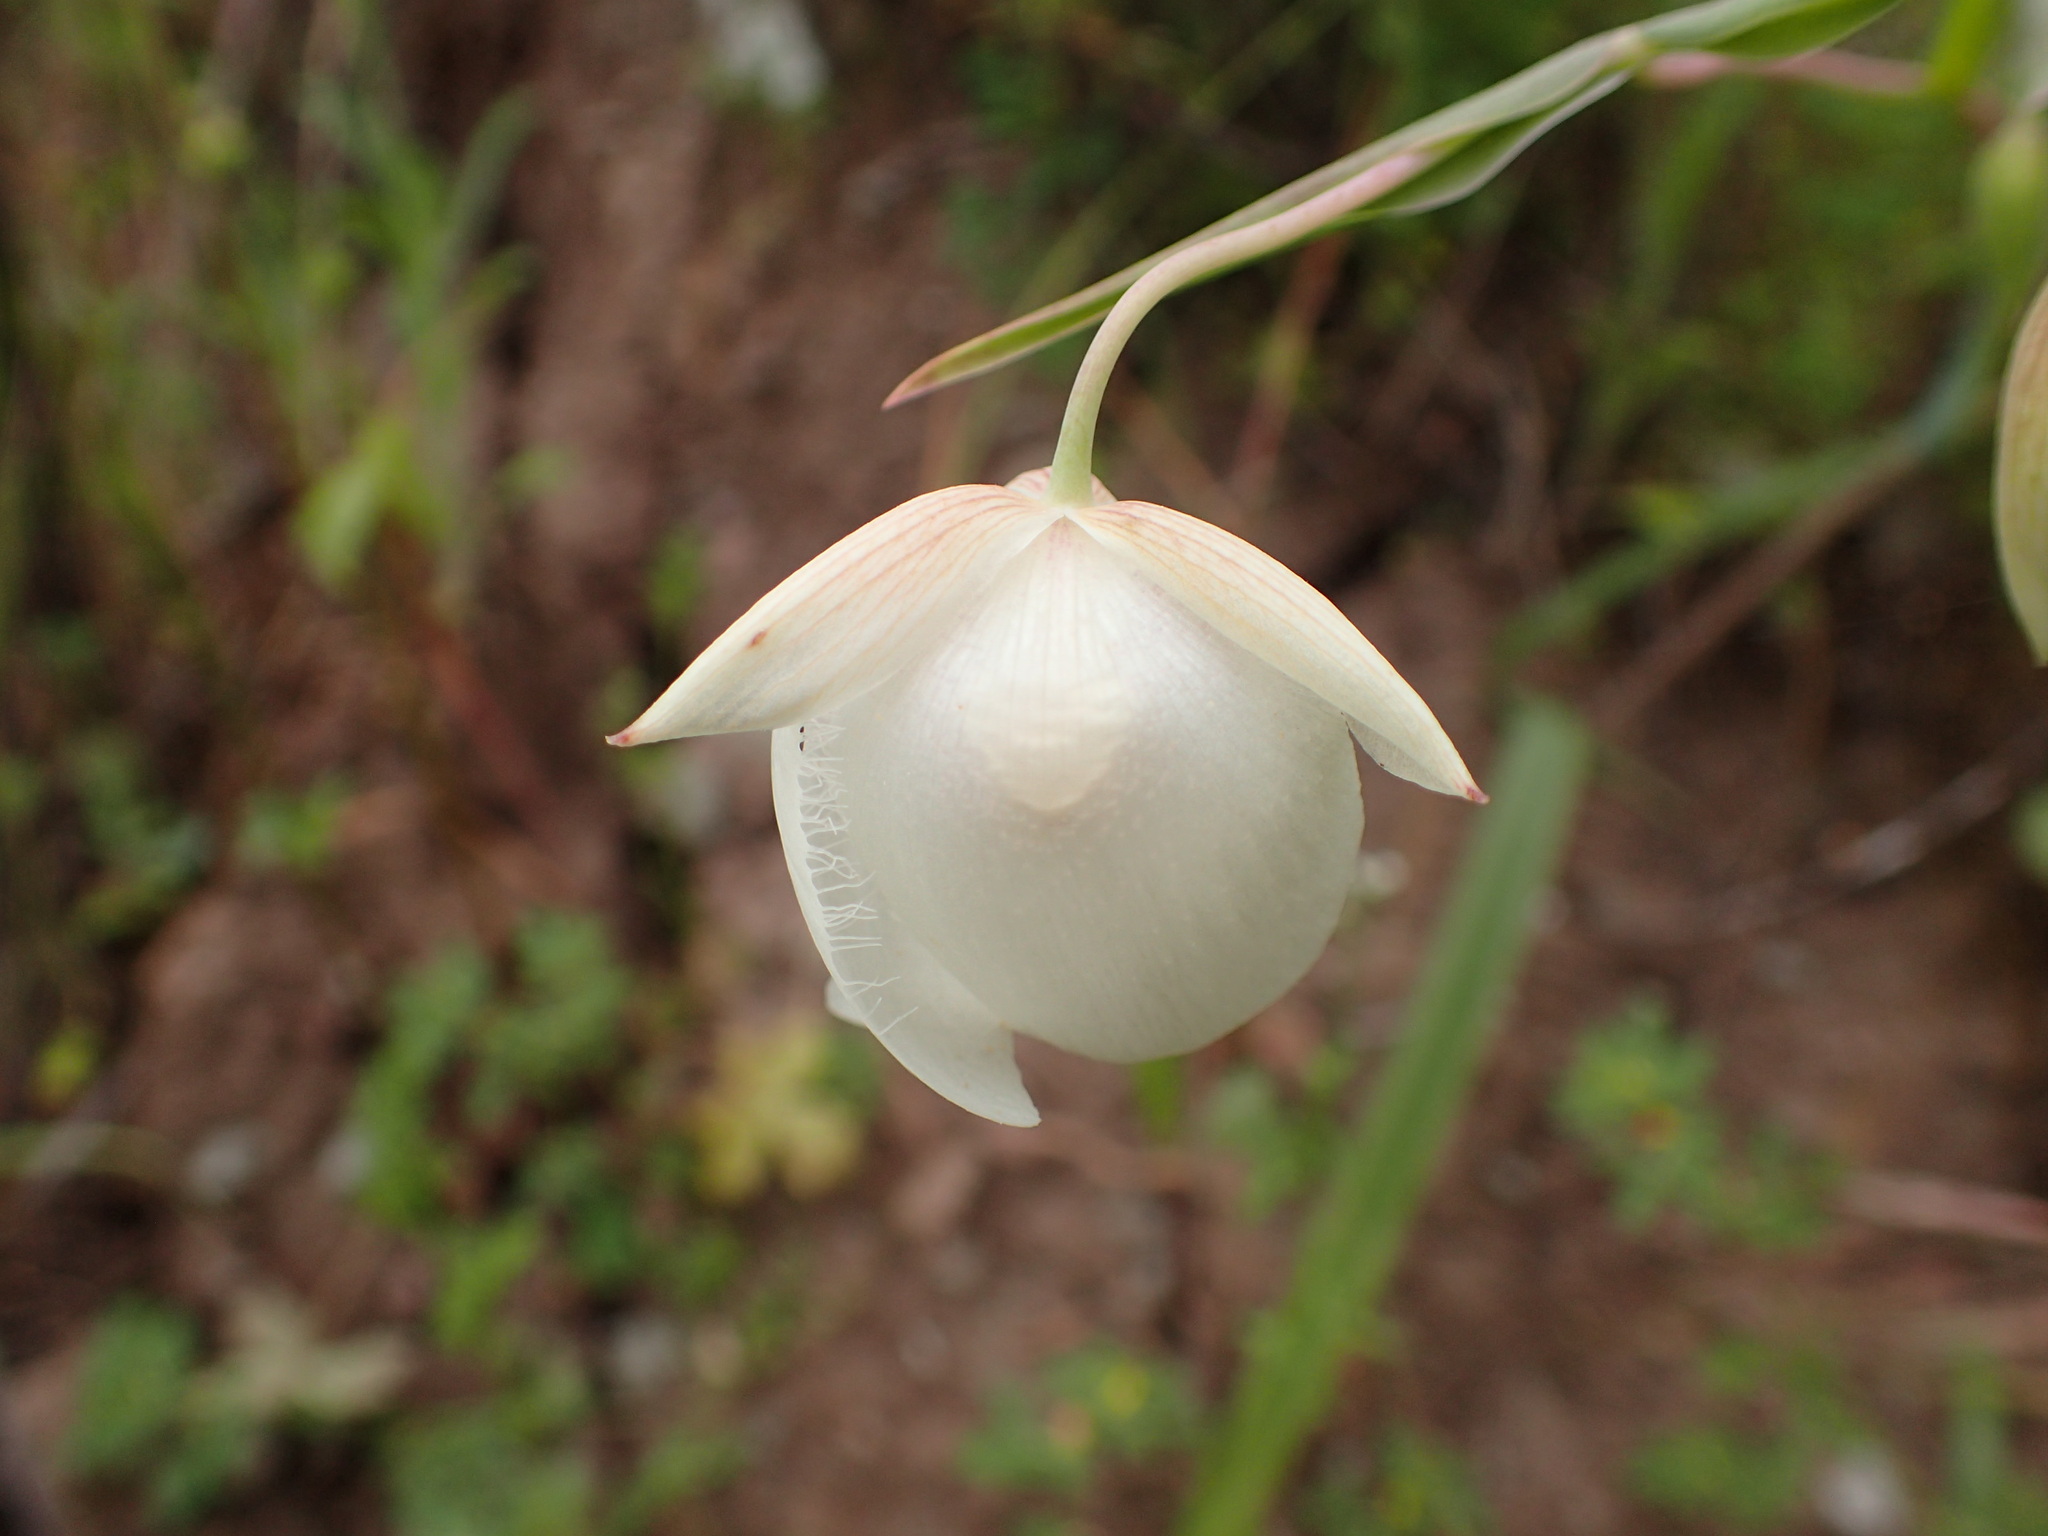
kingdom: Plantae
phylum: Tracheophyta
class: Liliopsida
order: Liliales
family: Liliaceae
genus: Calochortus
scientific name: Calochortus albus
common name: Fairy-lantern
